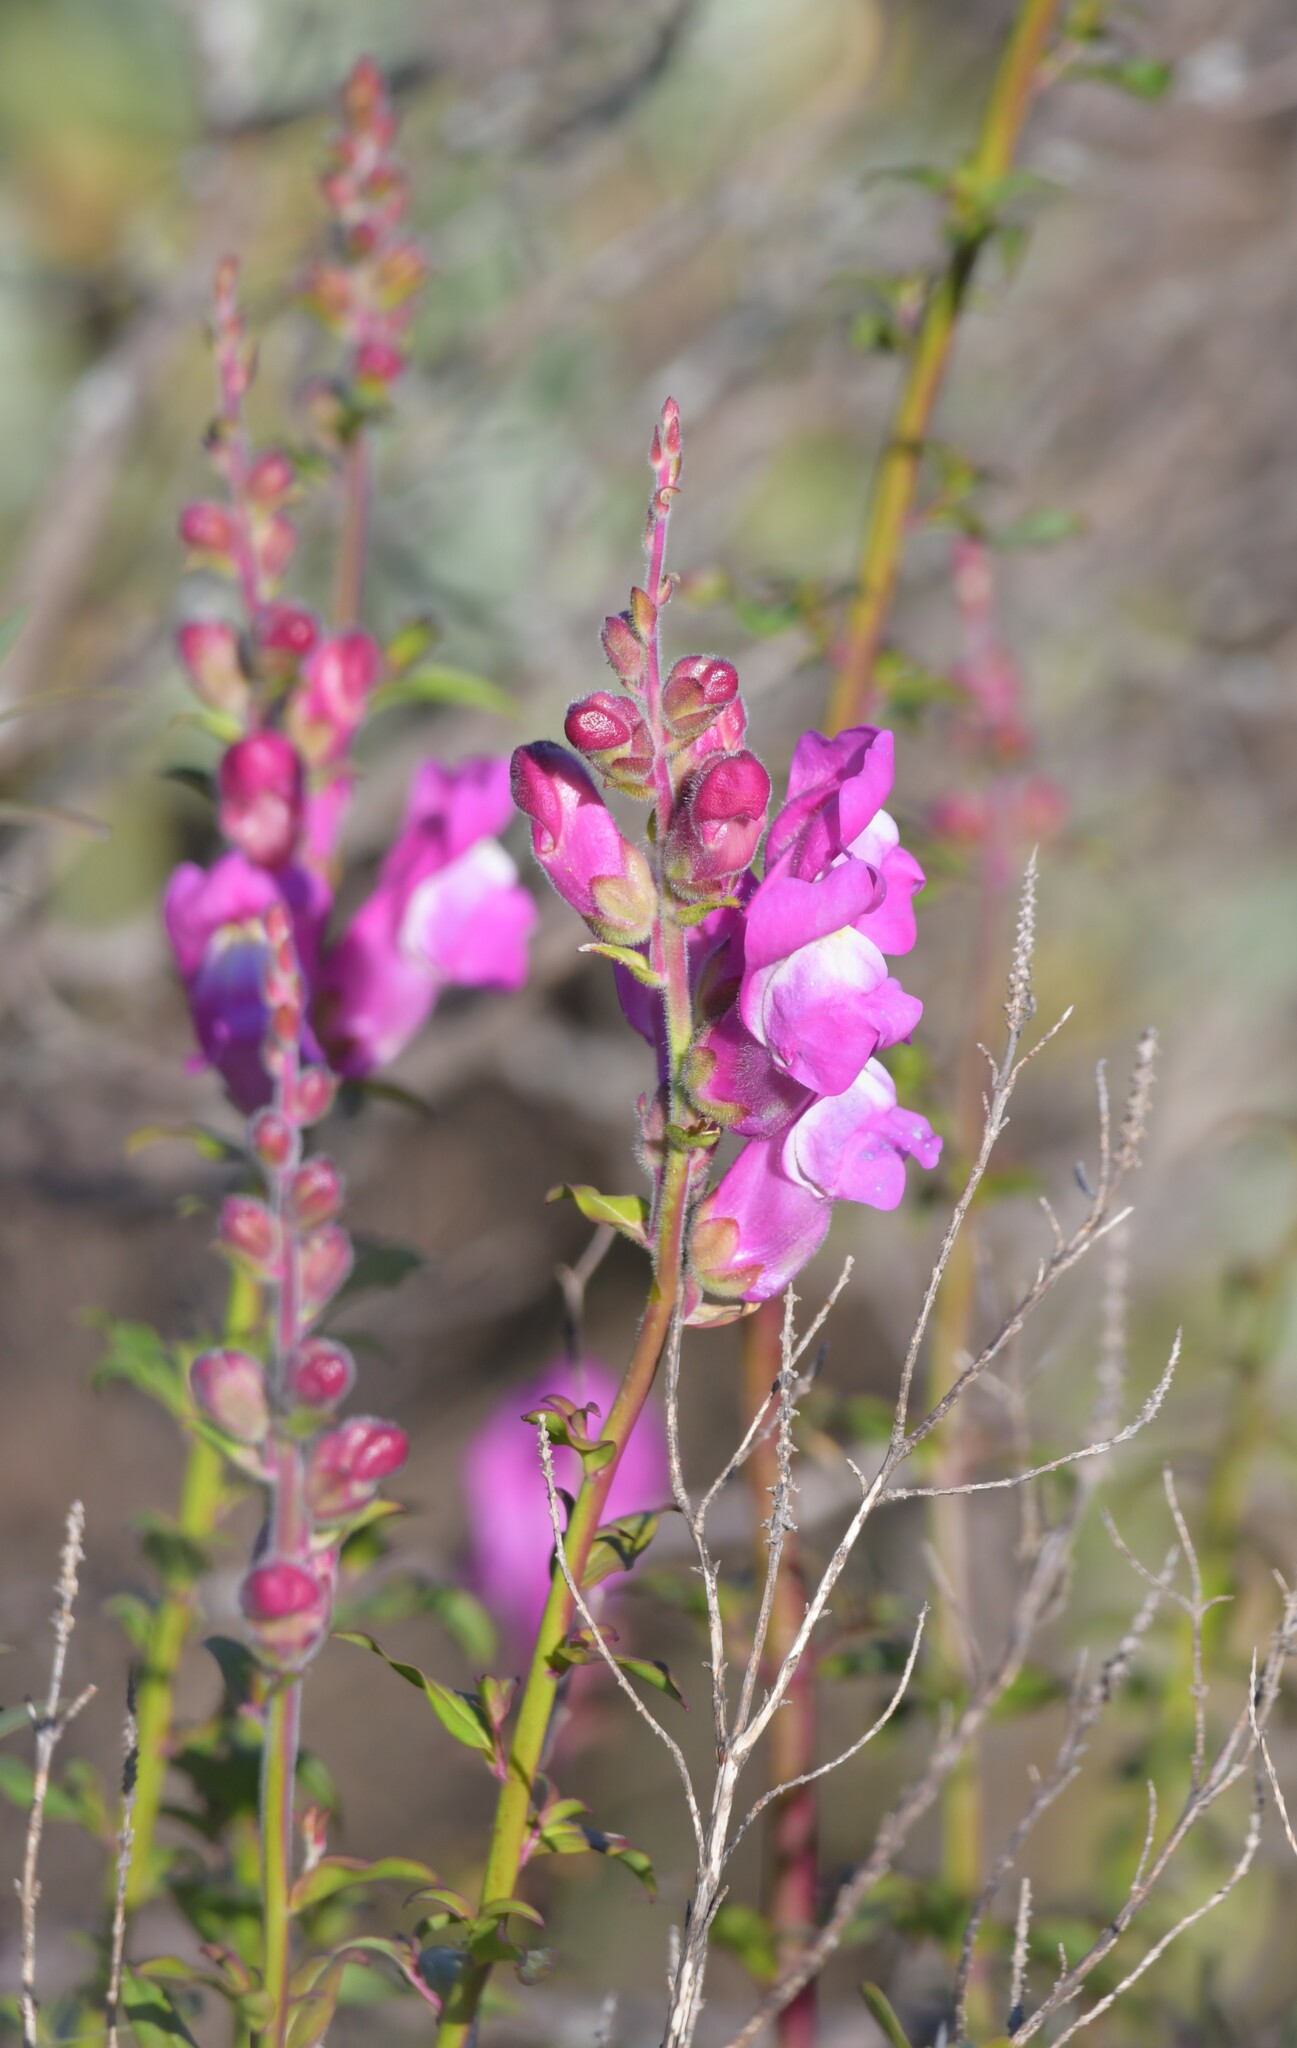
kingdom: Plantae
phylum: Tracheophyta
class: Magnoliopsida
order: Lamiales
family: Plantaginaceae
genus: Antirrhinum
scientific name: Antirrhinum linkianum
